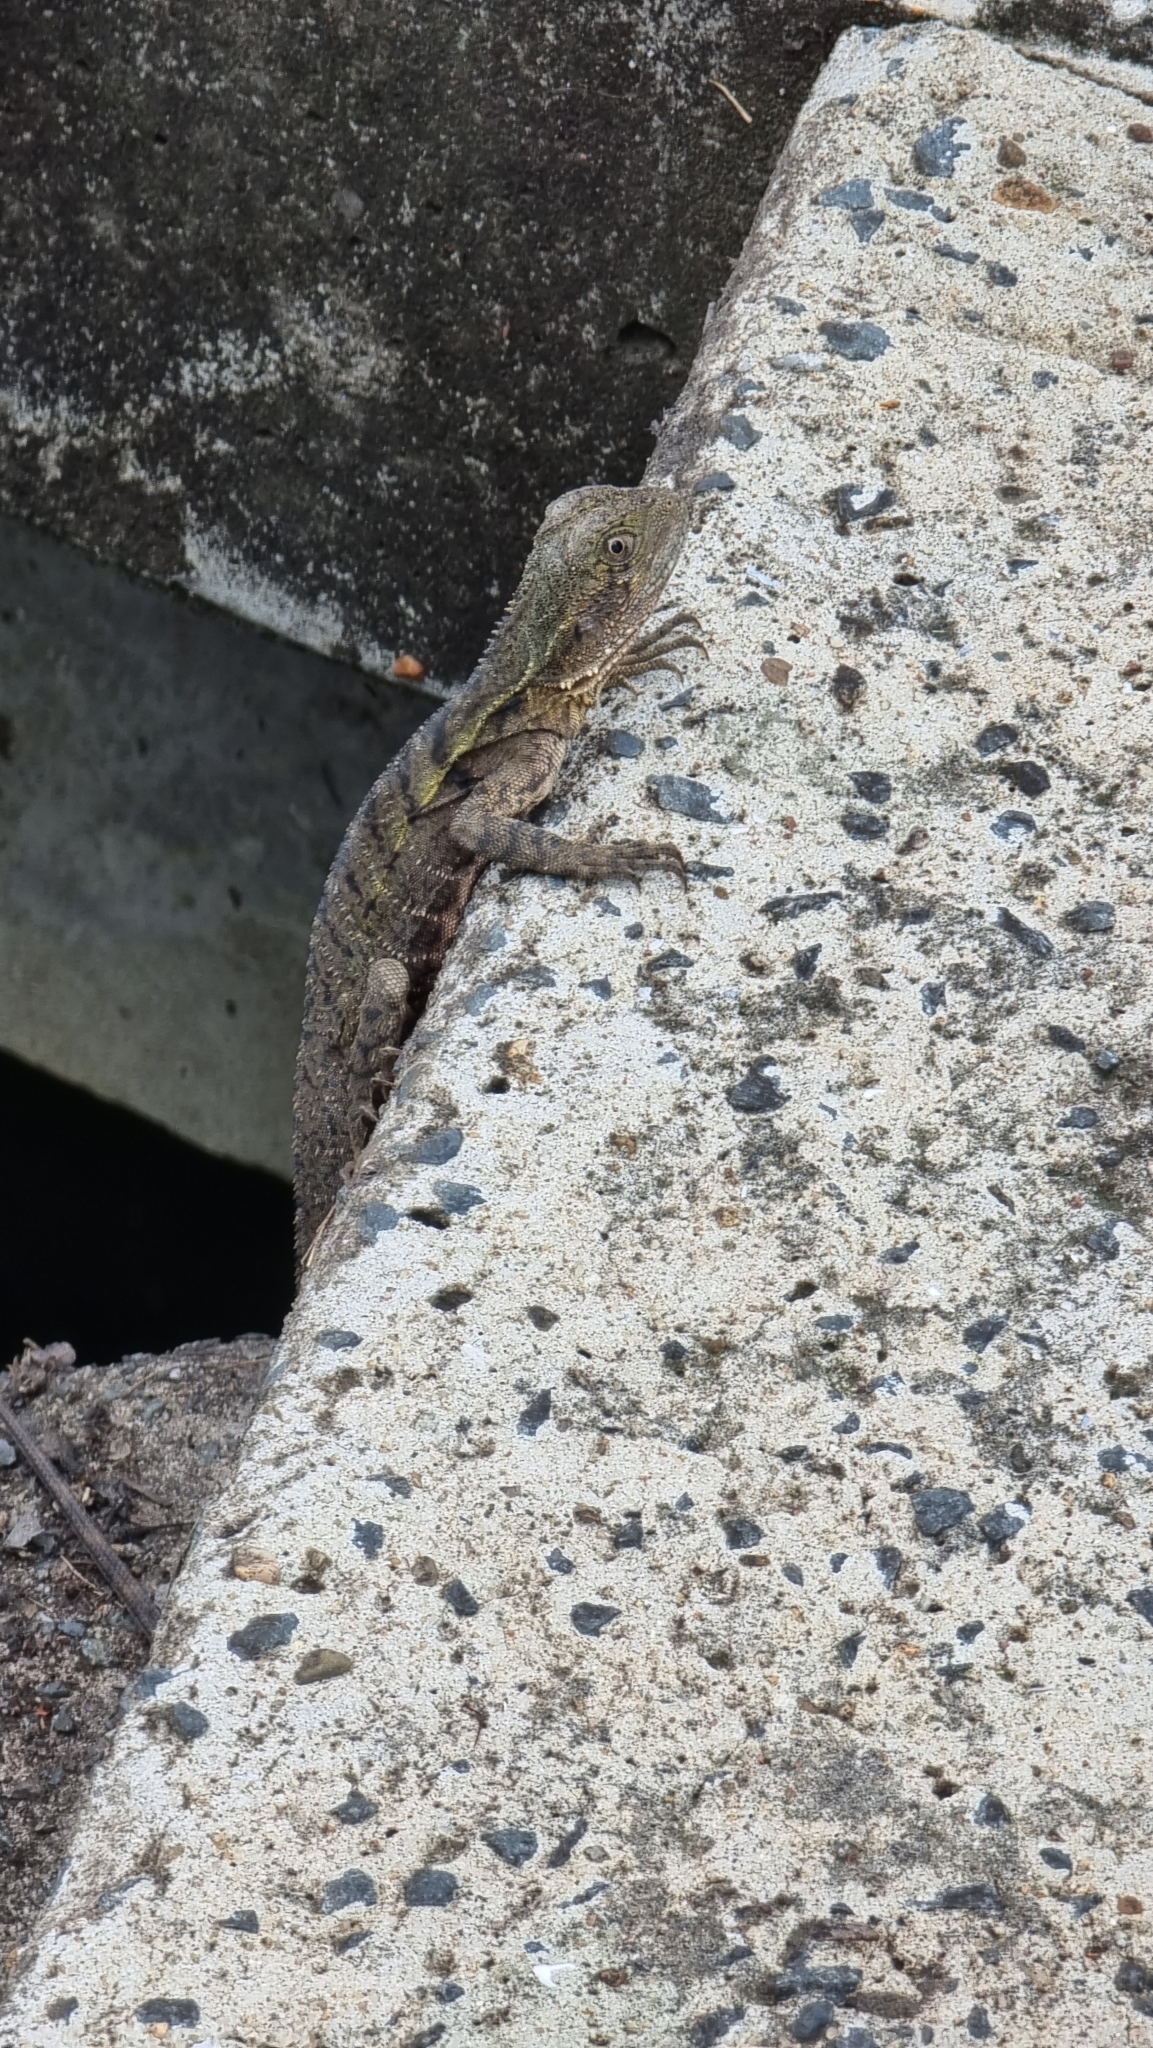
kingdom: Animalia
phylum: Chordata
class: Squamata
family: Agamidae
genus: Intellagama
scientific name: Intellagama lesueurii
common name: Eastern water dragon
